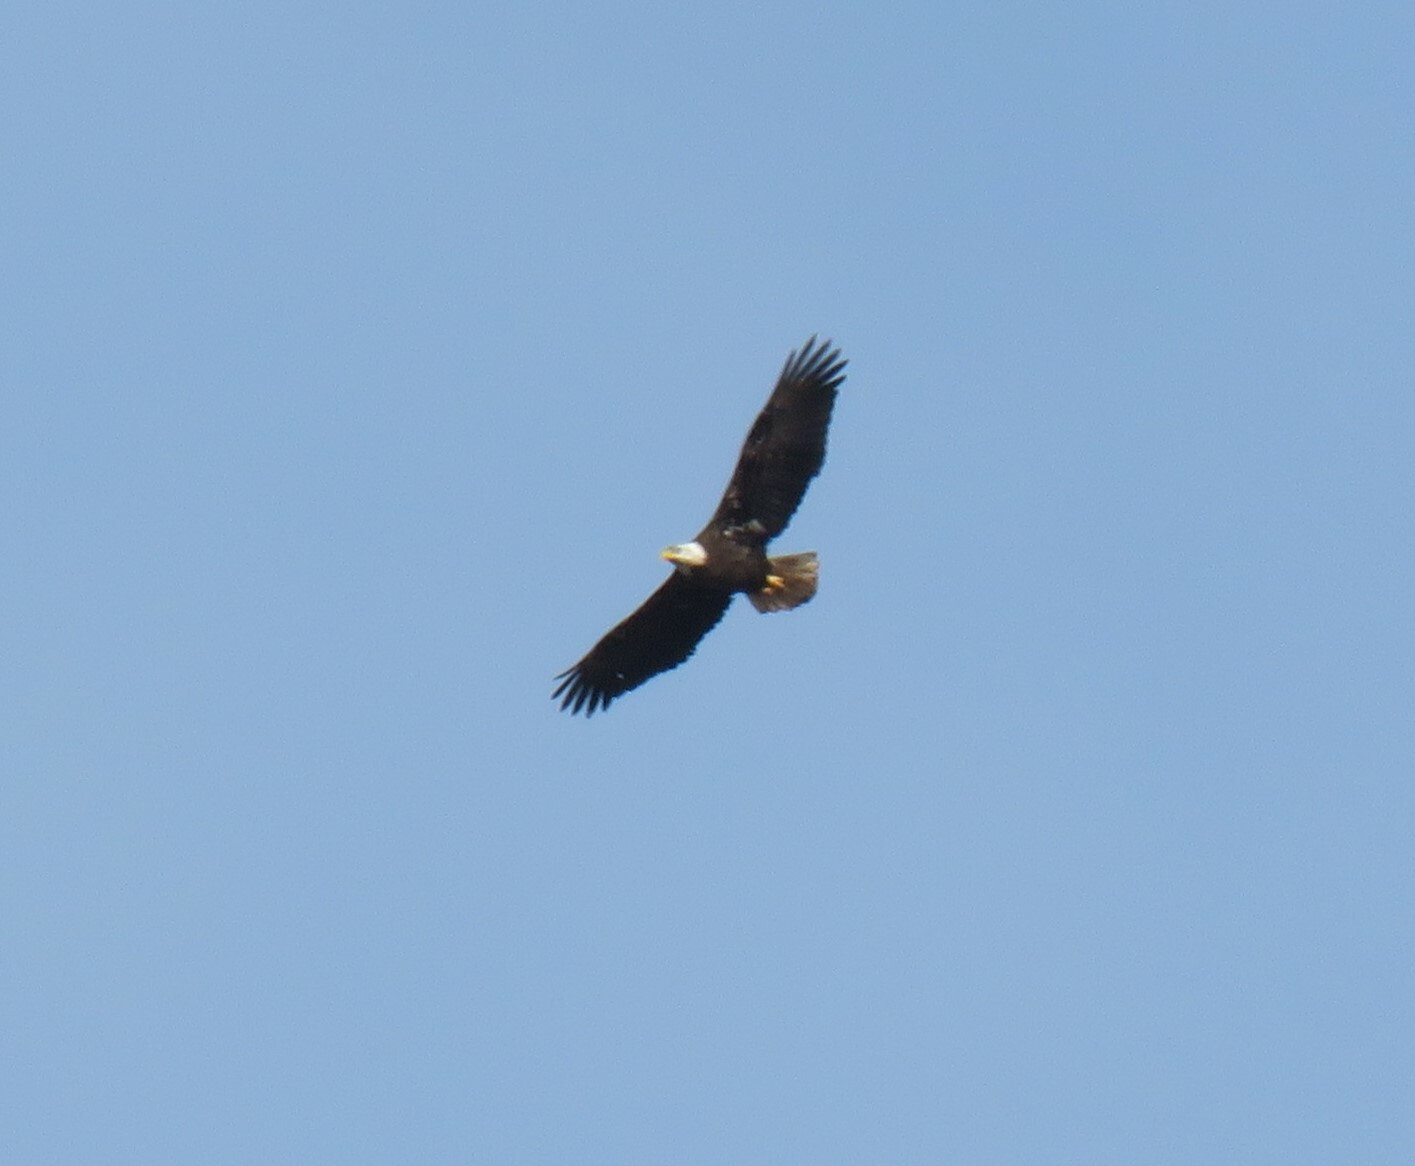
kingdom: Animalia
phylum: Chordata
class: Aves
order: Accipitriformes
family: Accipitridae
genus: Haliaeetus
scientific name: Haliaeetus leucocephalus
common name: Bald eagle
